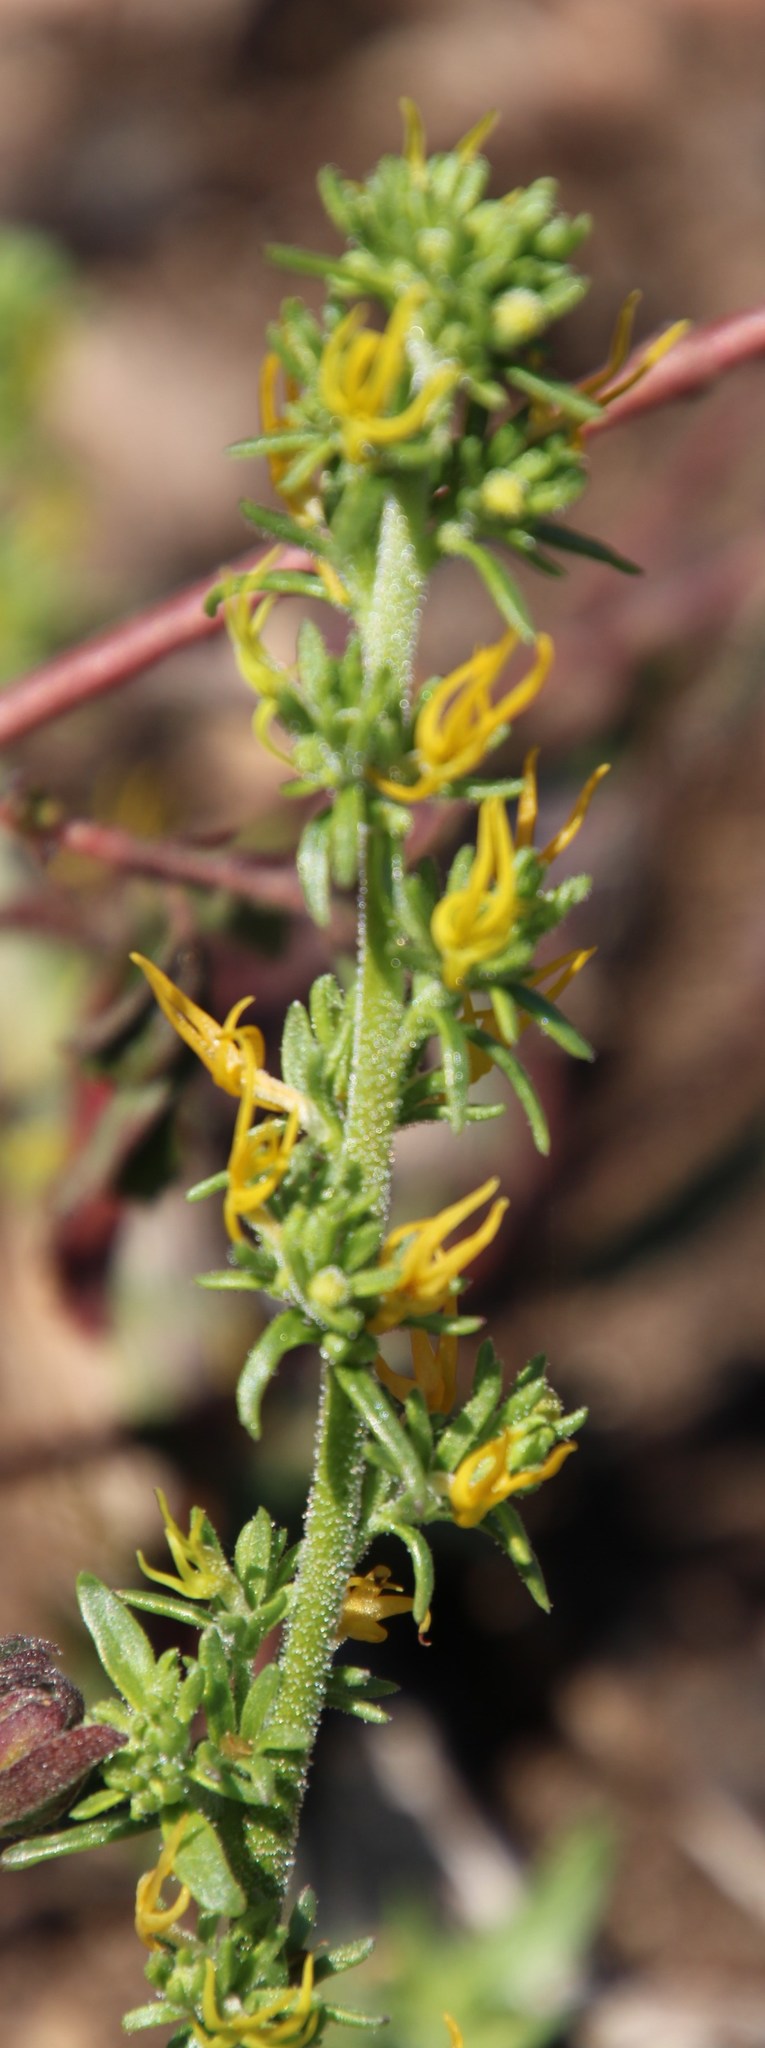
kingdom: Plantae
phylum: Tracheophyta
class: Magnoliopsida
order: Lamiales
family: Scrophulariaceae
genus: Manulea
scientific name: Manulea cheiranthus
